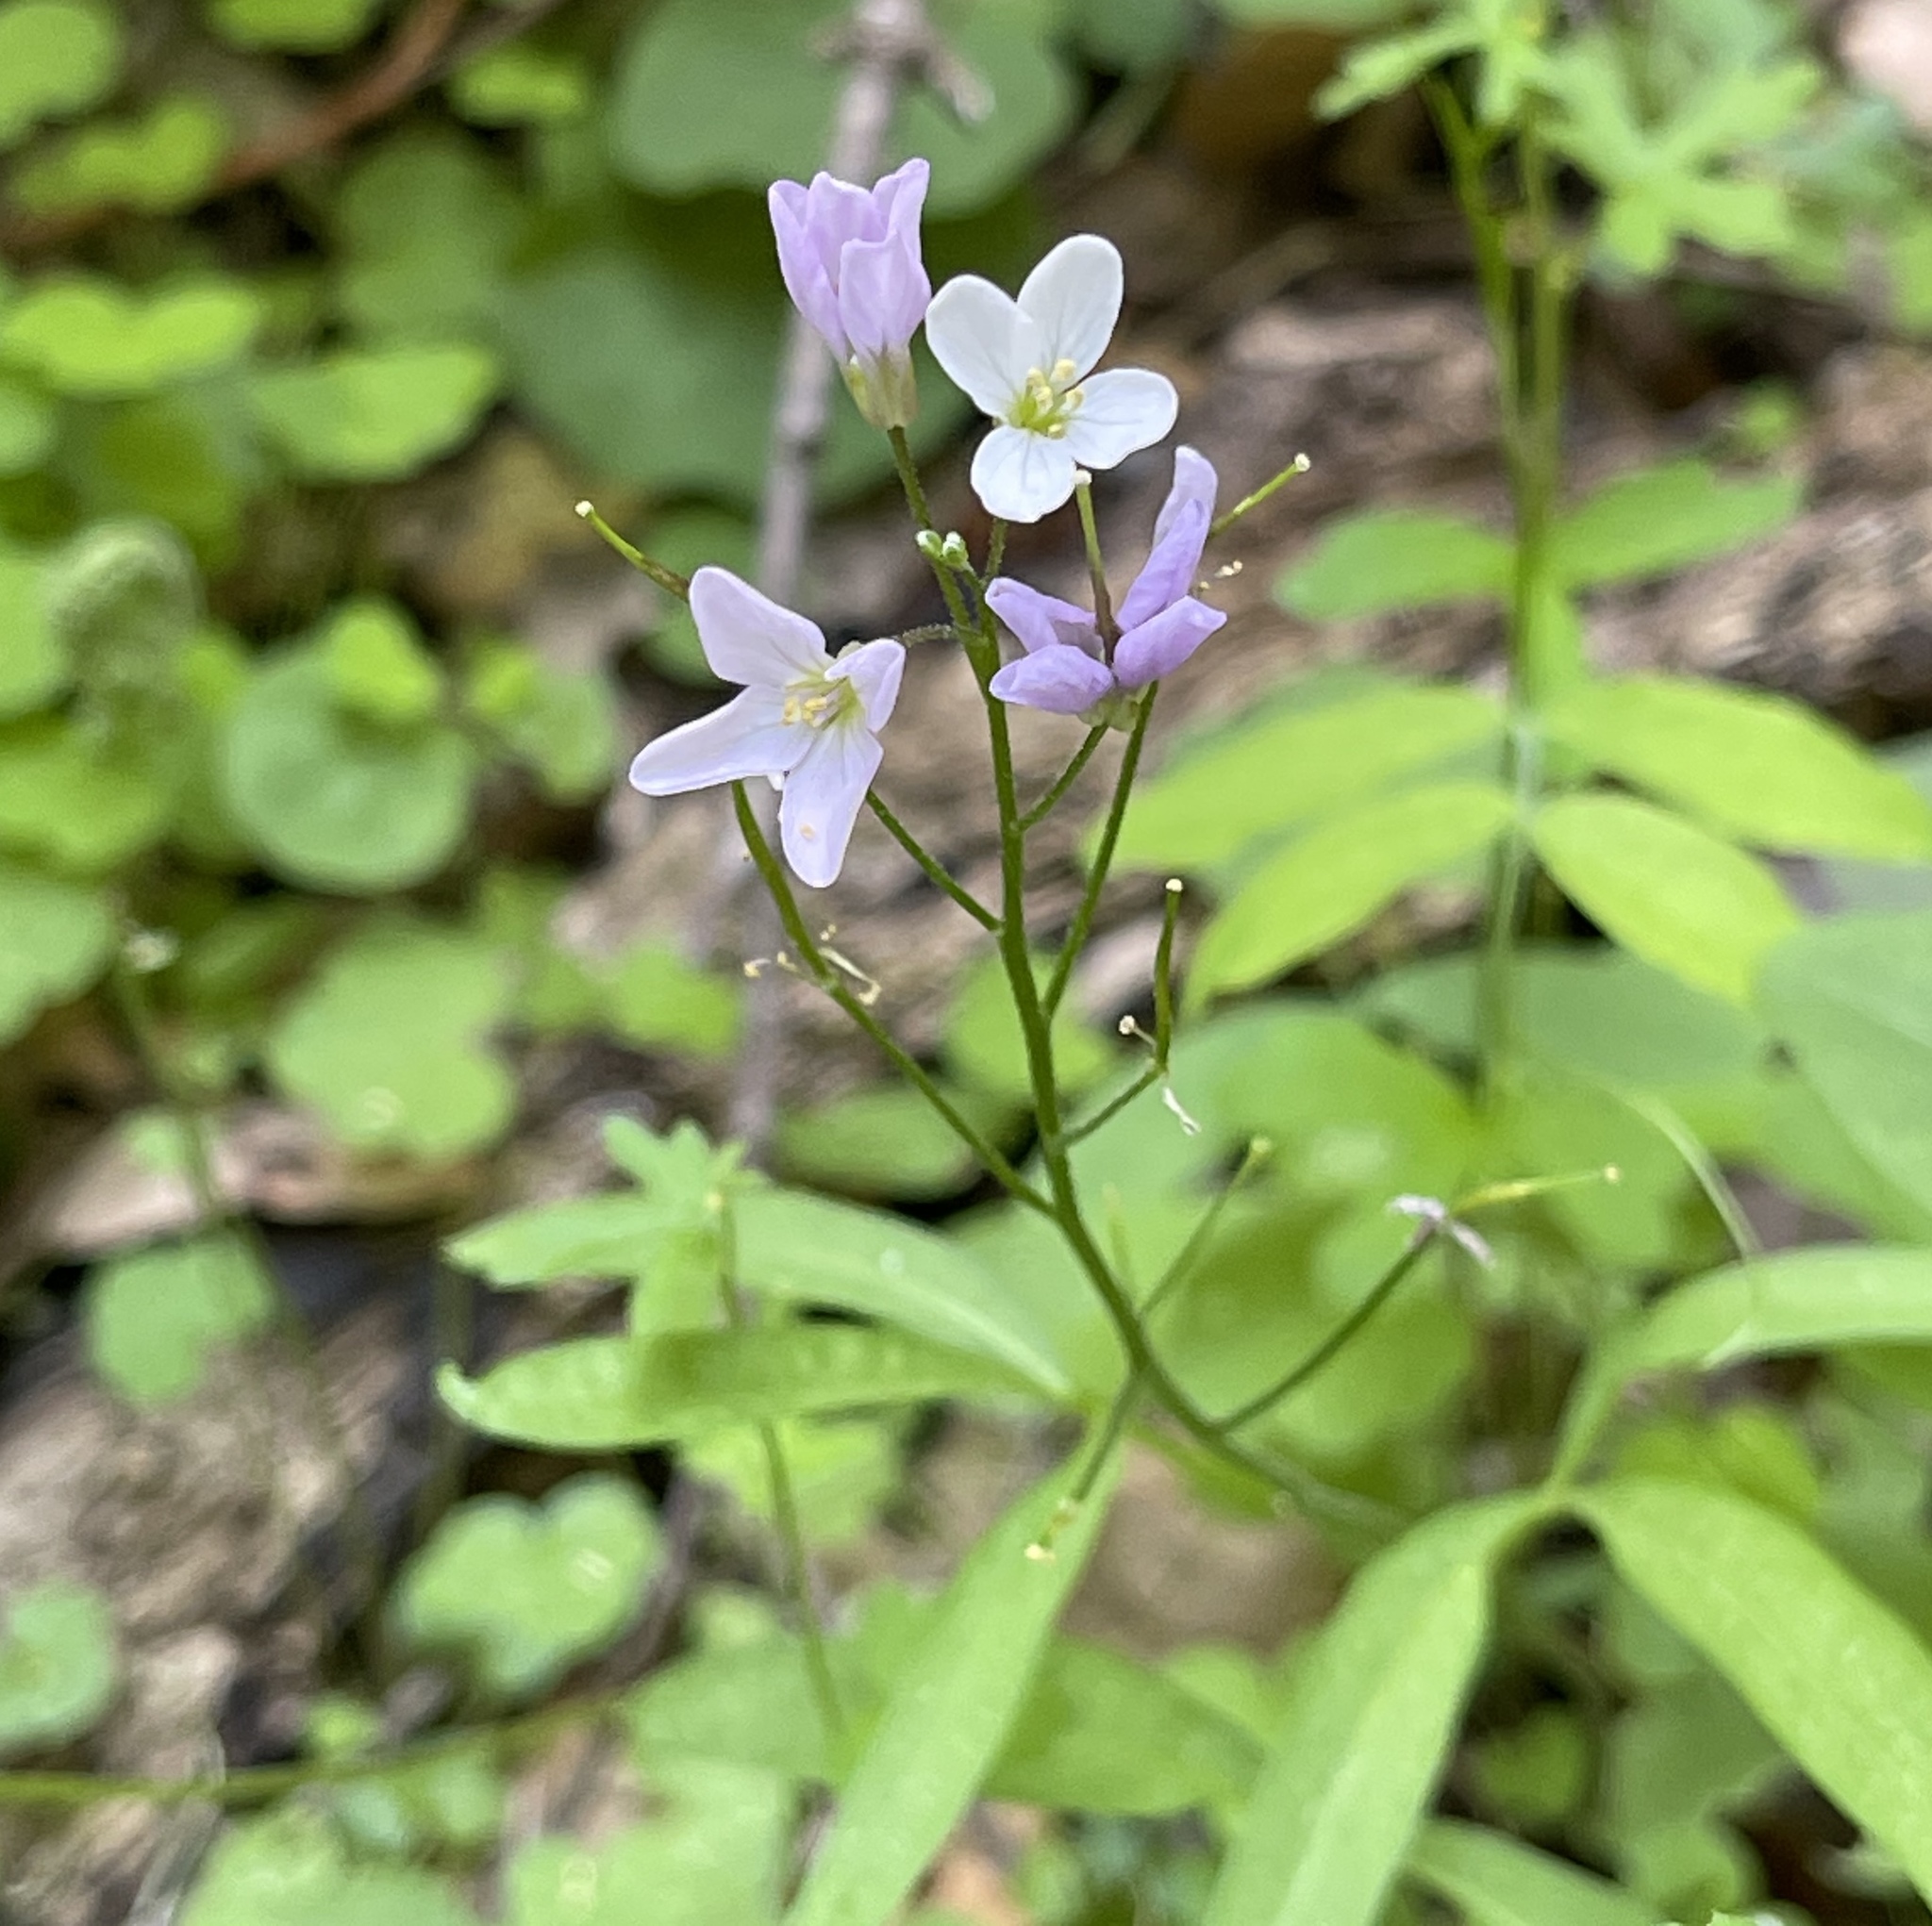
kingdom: Plantae
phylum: Tracheophyta
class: Magnoliopsida
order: Brassicales
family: Brassicaceae
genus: Cardamine
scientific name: Cardamine californica
